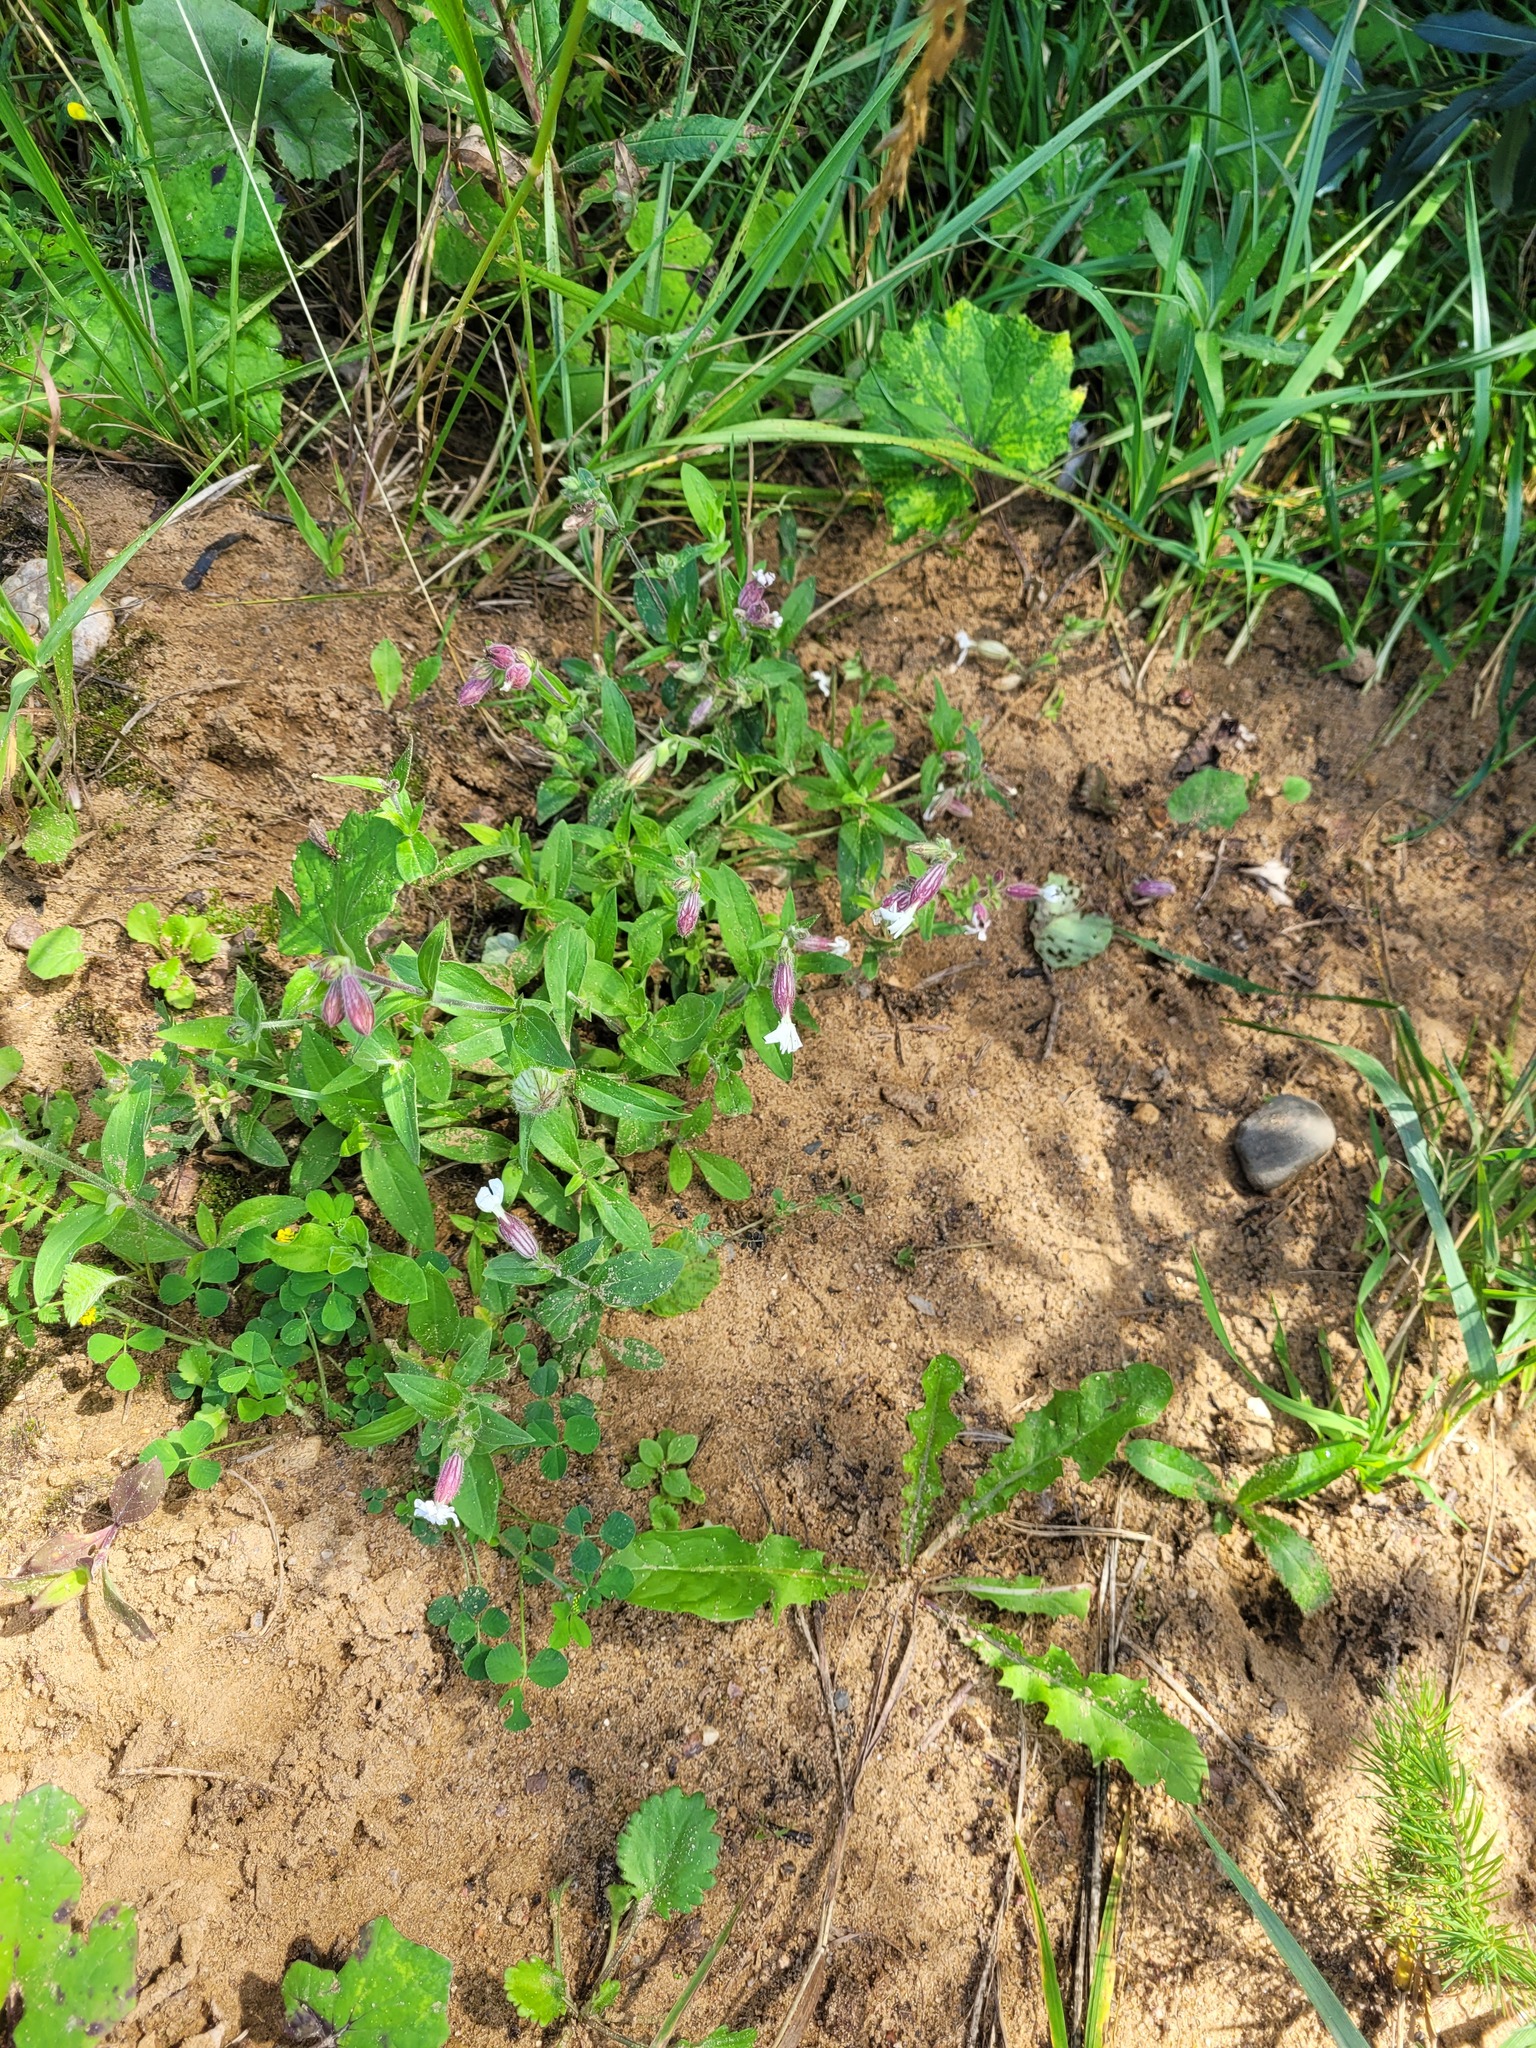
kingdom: Plantae
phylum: Tracheophyta
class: Magnoliopsida
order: Caryophyllales
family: Caryophyllaceae
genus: Silene
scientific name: Silene latifolia
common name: White campion
